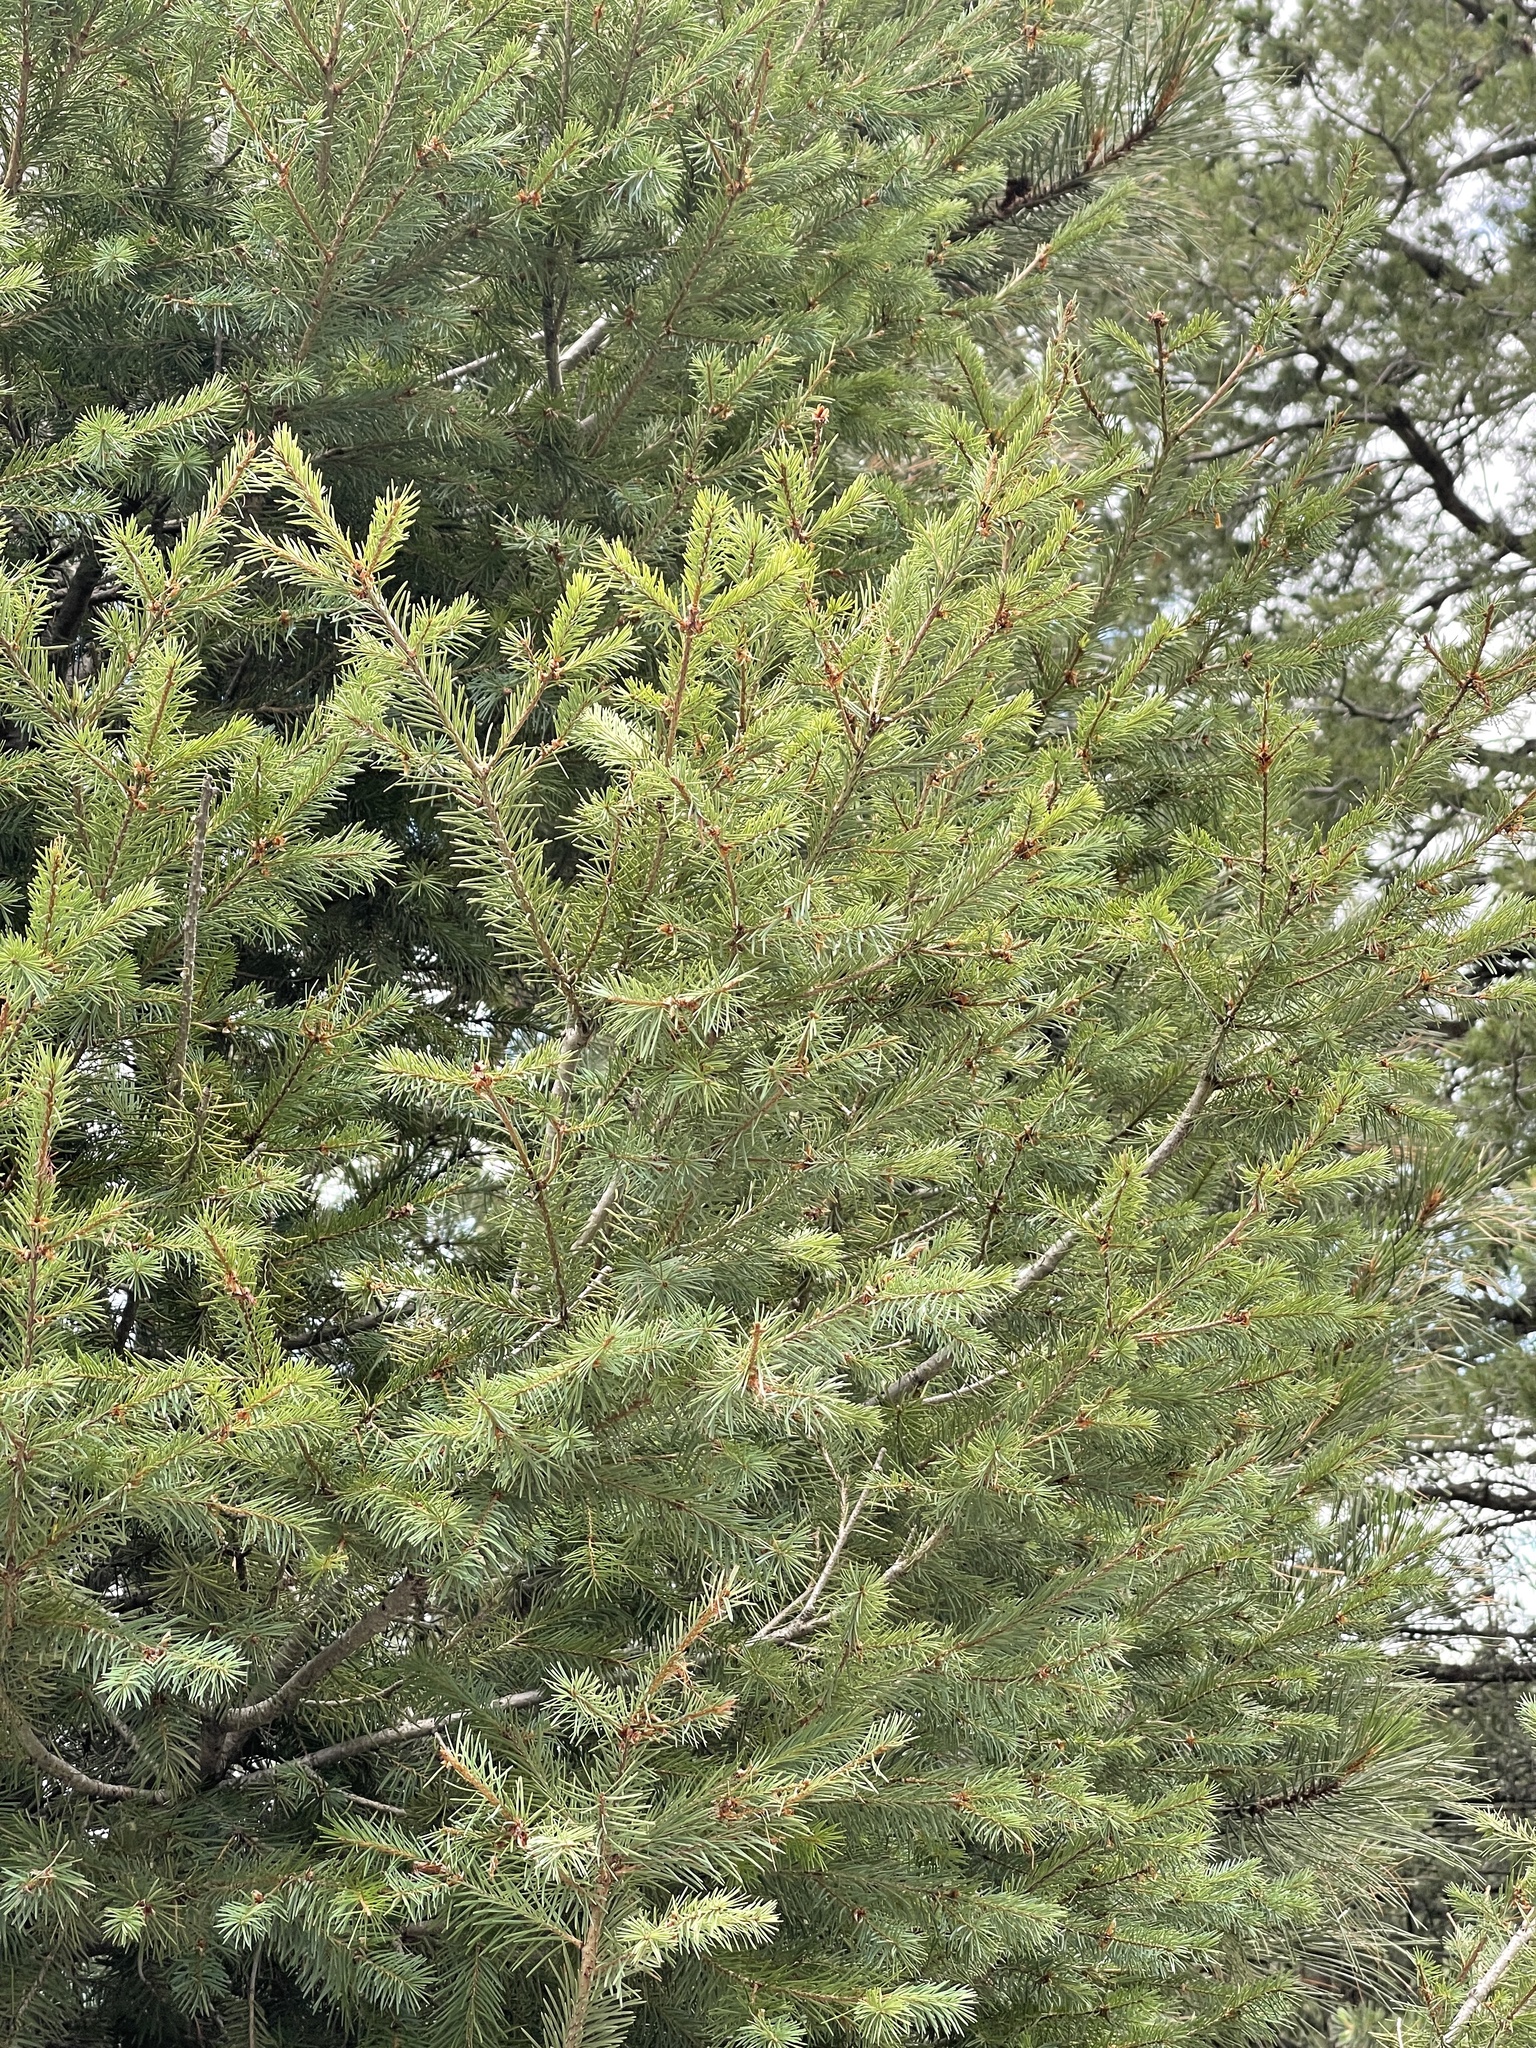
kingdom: Plantae
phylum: Tracheophyta
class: Pinopsida
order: Pinales
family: Pinaceae
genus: Pseudotsuga
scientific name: Pseudotsuga menziesii
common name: Douglas fir
